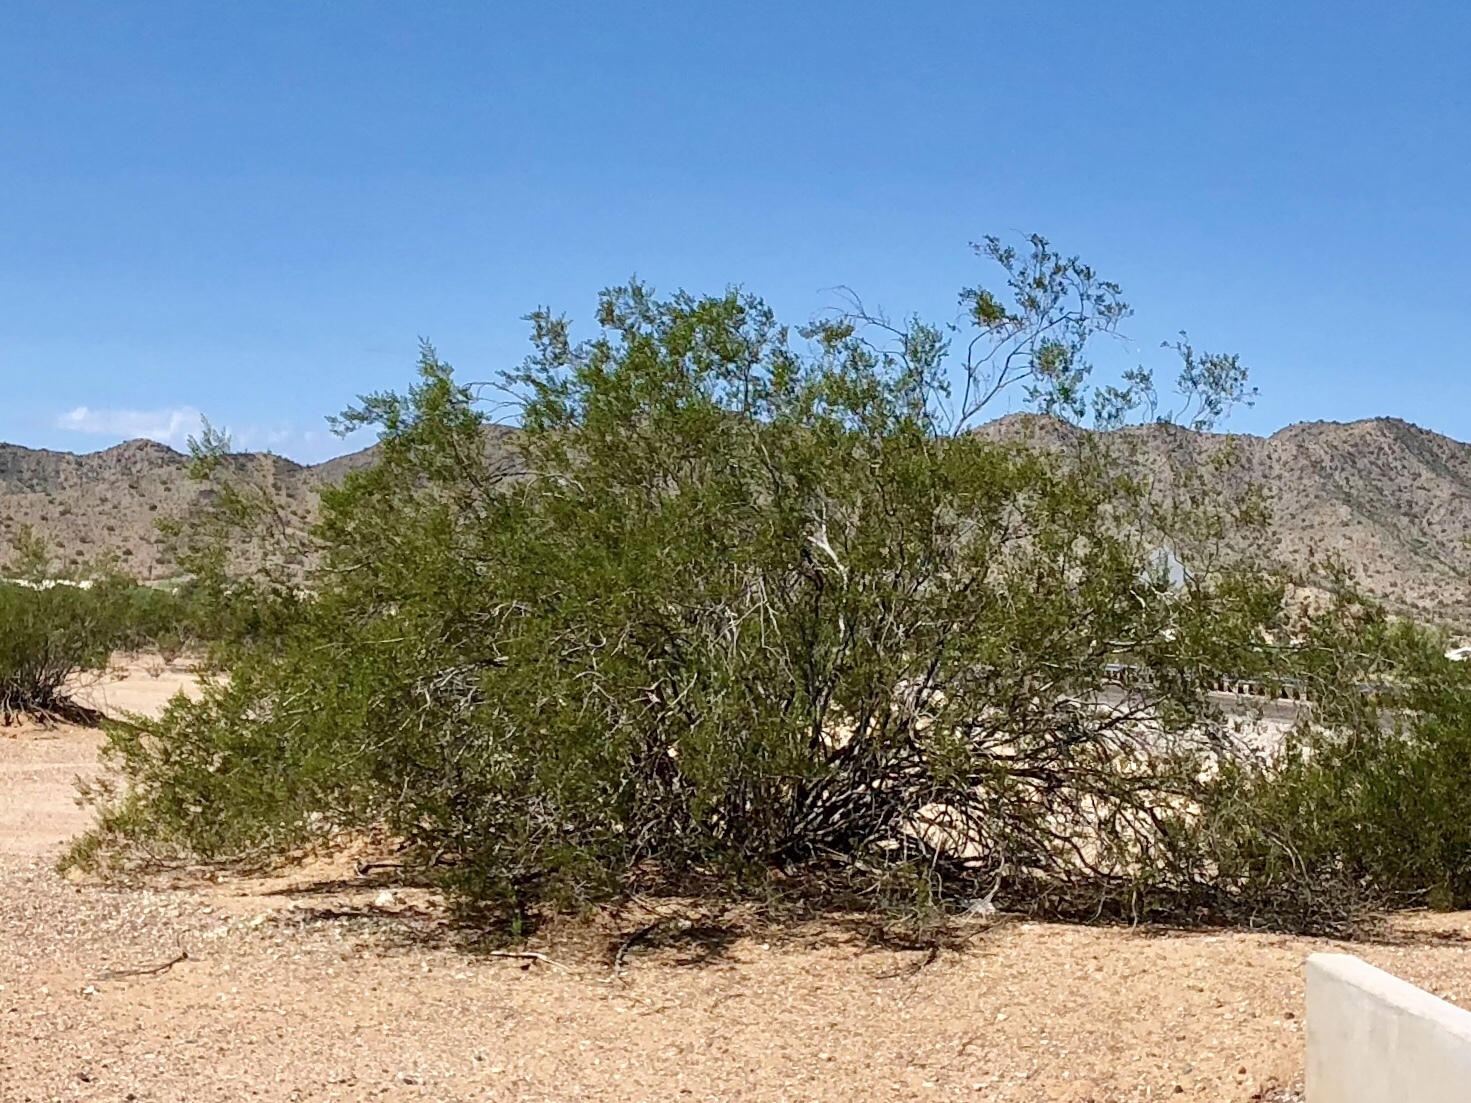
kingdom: Plantae
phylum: Tracheophyta
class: Magnoliopsida
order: Zygophyllales
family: Zygophyllaceae
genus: Larrea
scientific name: Larrea tridentata
